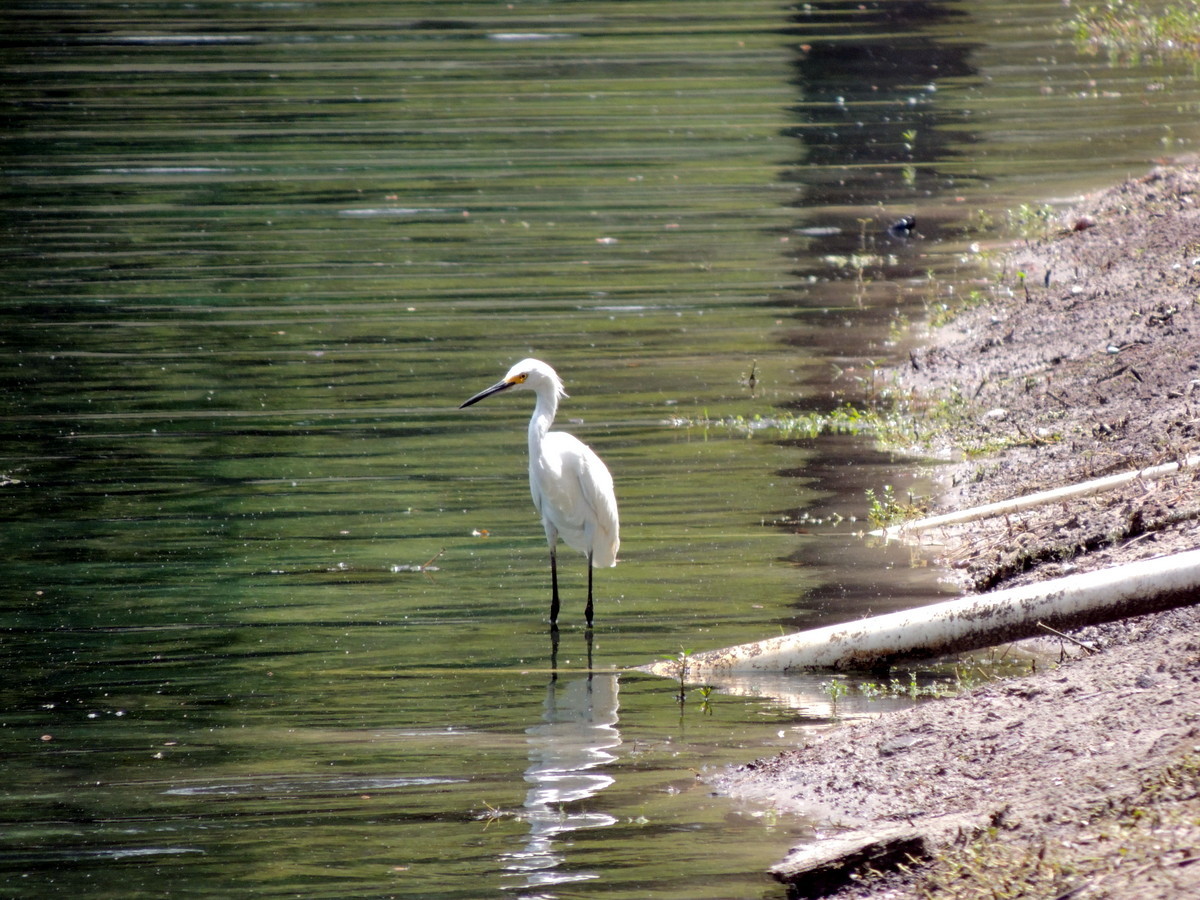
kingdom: Animalia
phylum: Chordata
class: Aves
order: Pelecaniformes
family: Ardeidae
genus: Egretta
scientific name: Egretta thula
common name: Snowy egret
